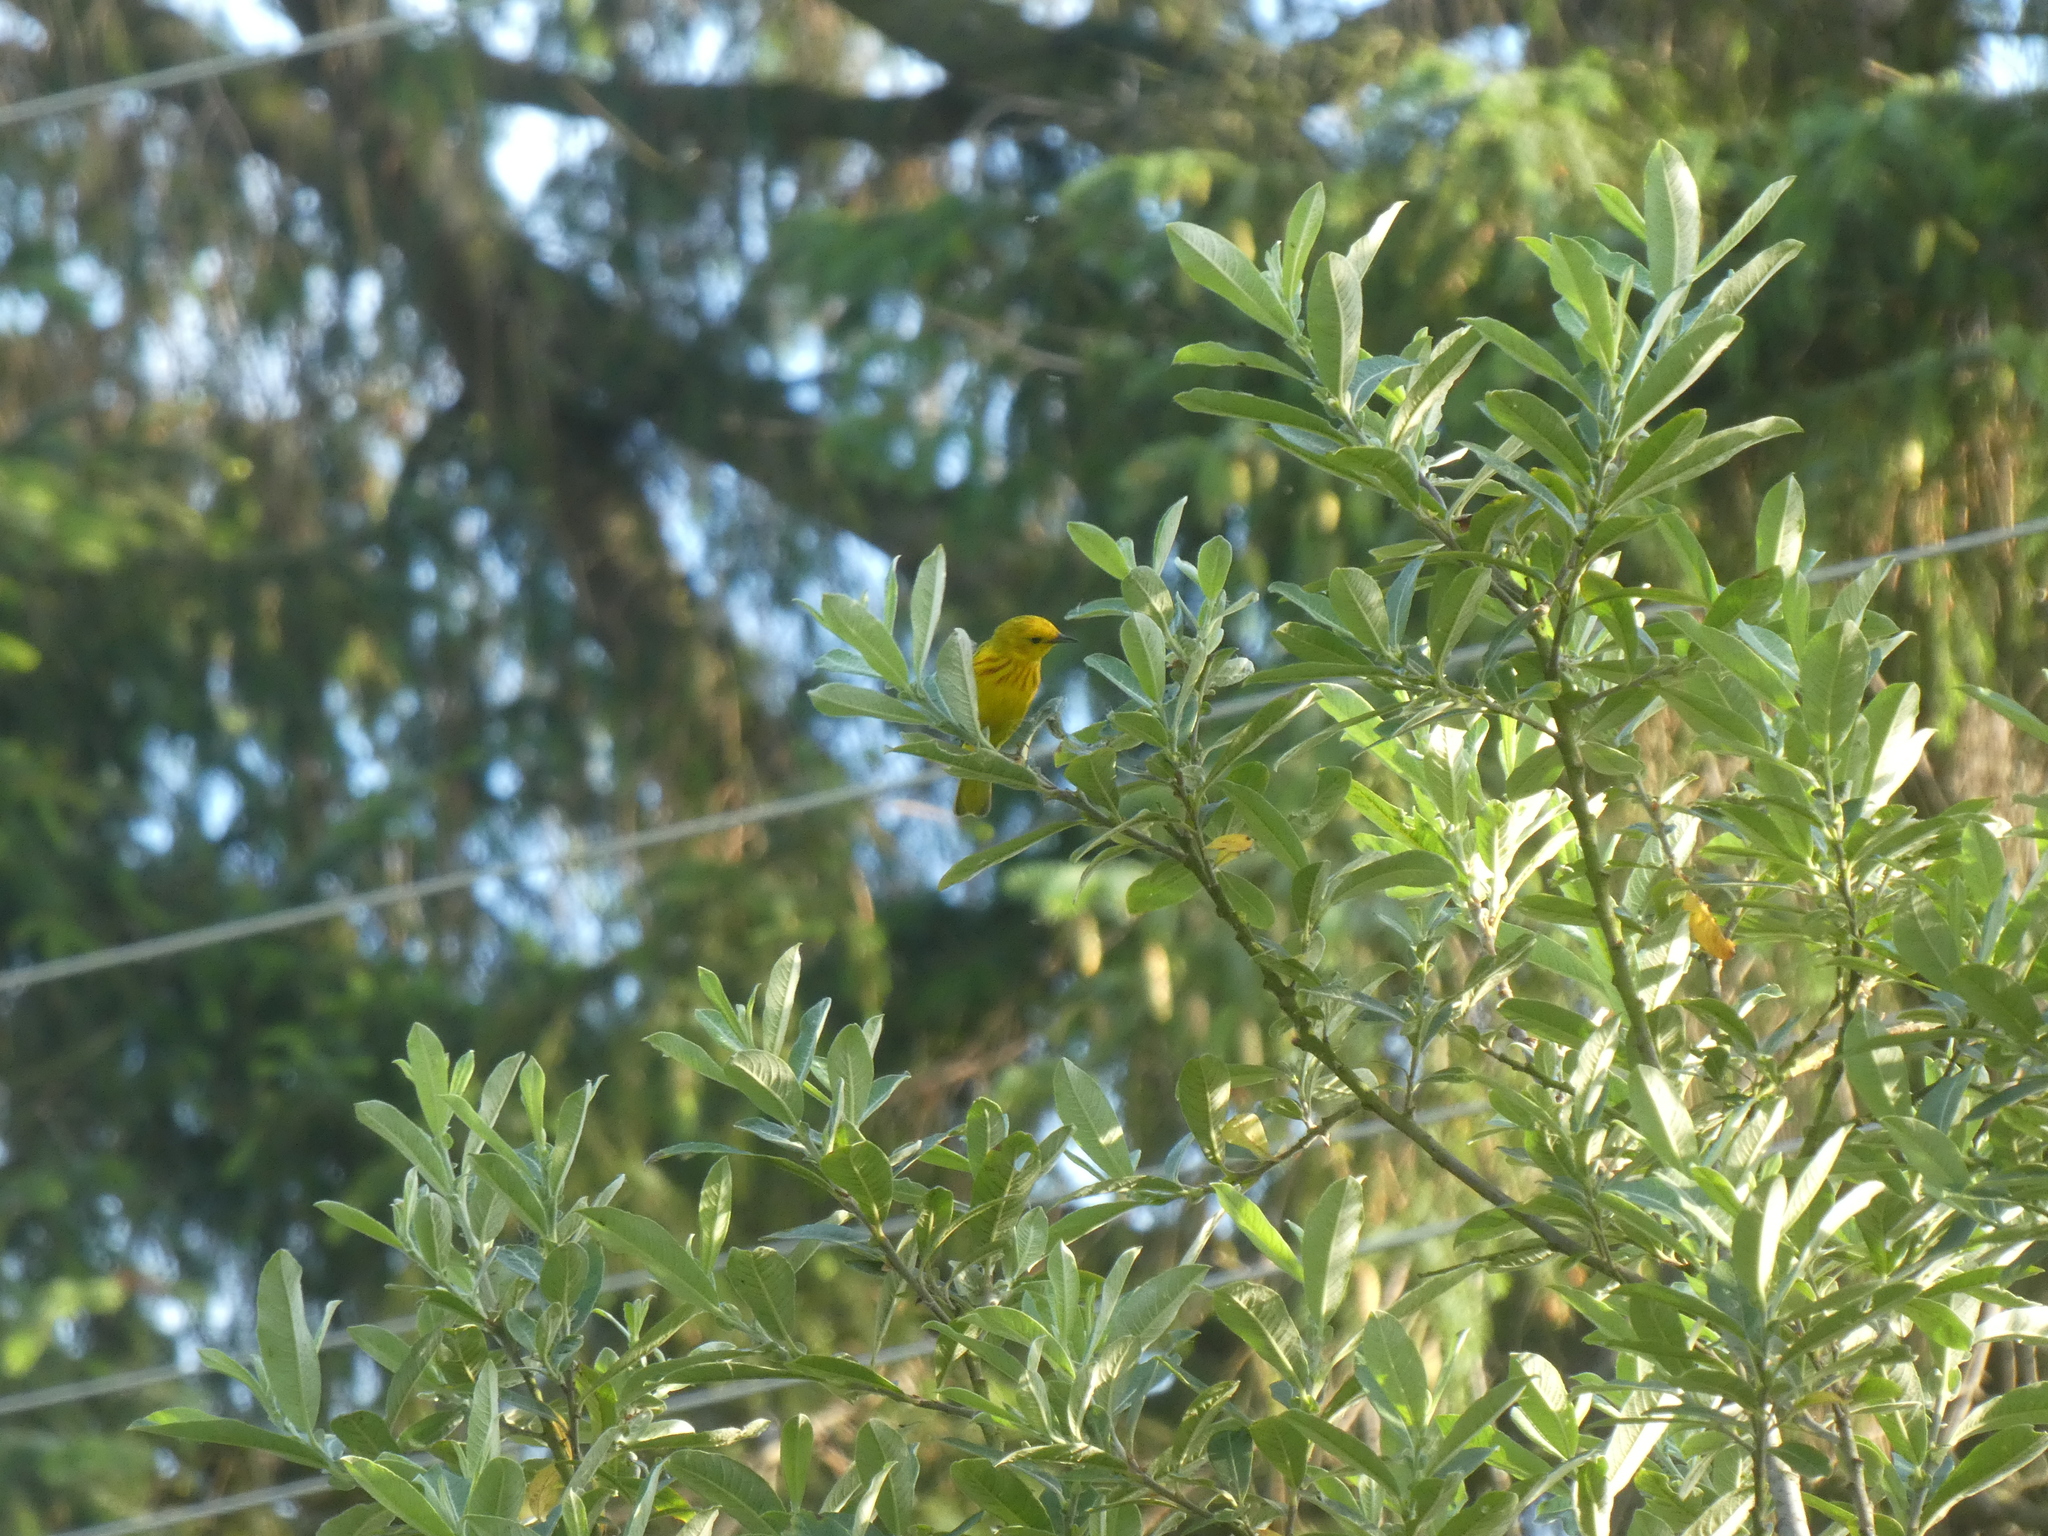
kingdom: Animalia
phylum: Chordata
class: Aves
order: Passeriformes
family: Parulidae
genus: Setophaga
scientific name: Setophaga petechia
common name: Yellow warbler
